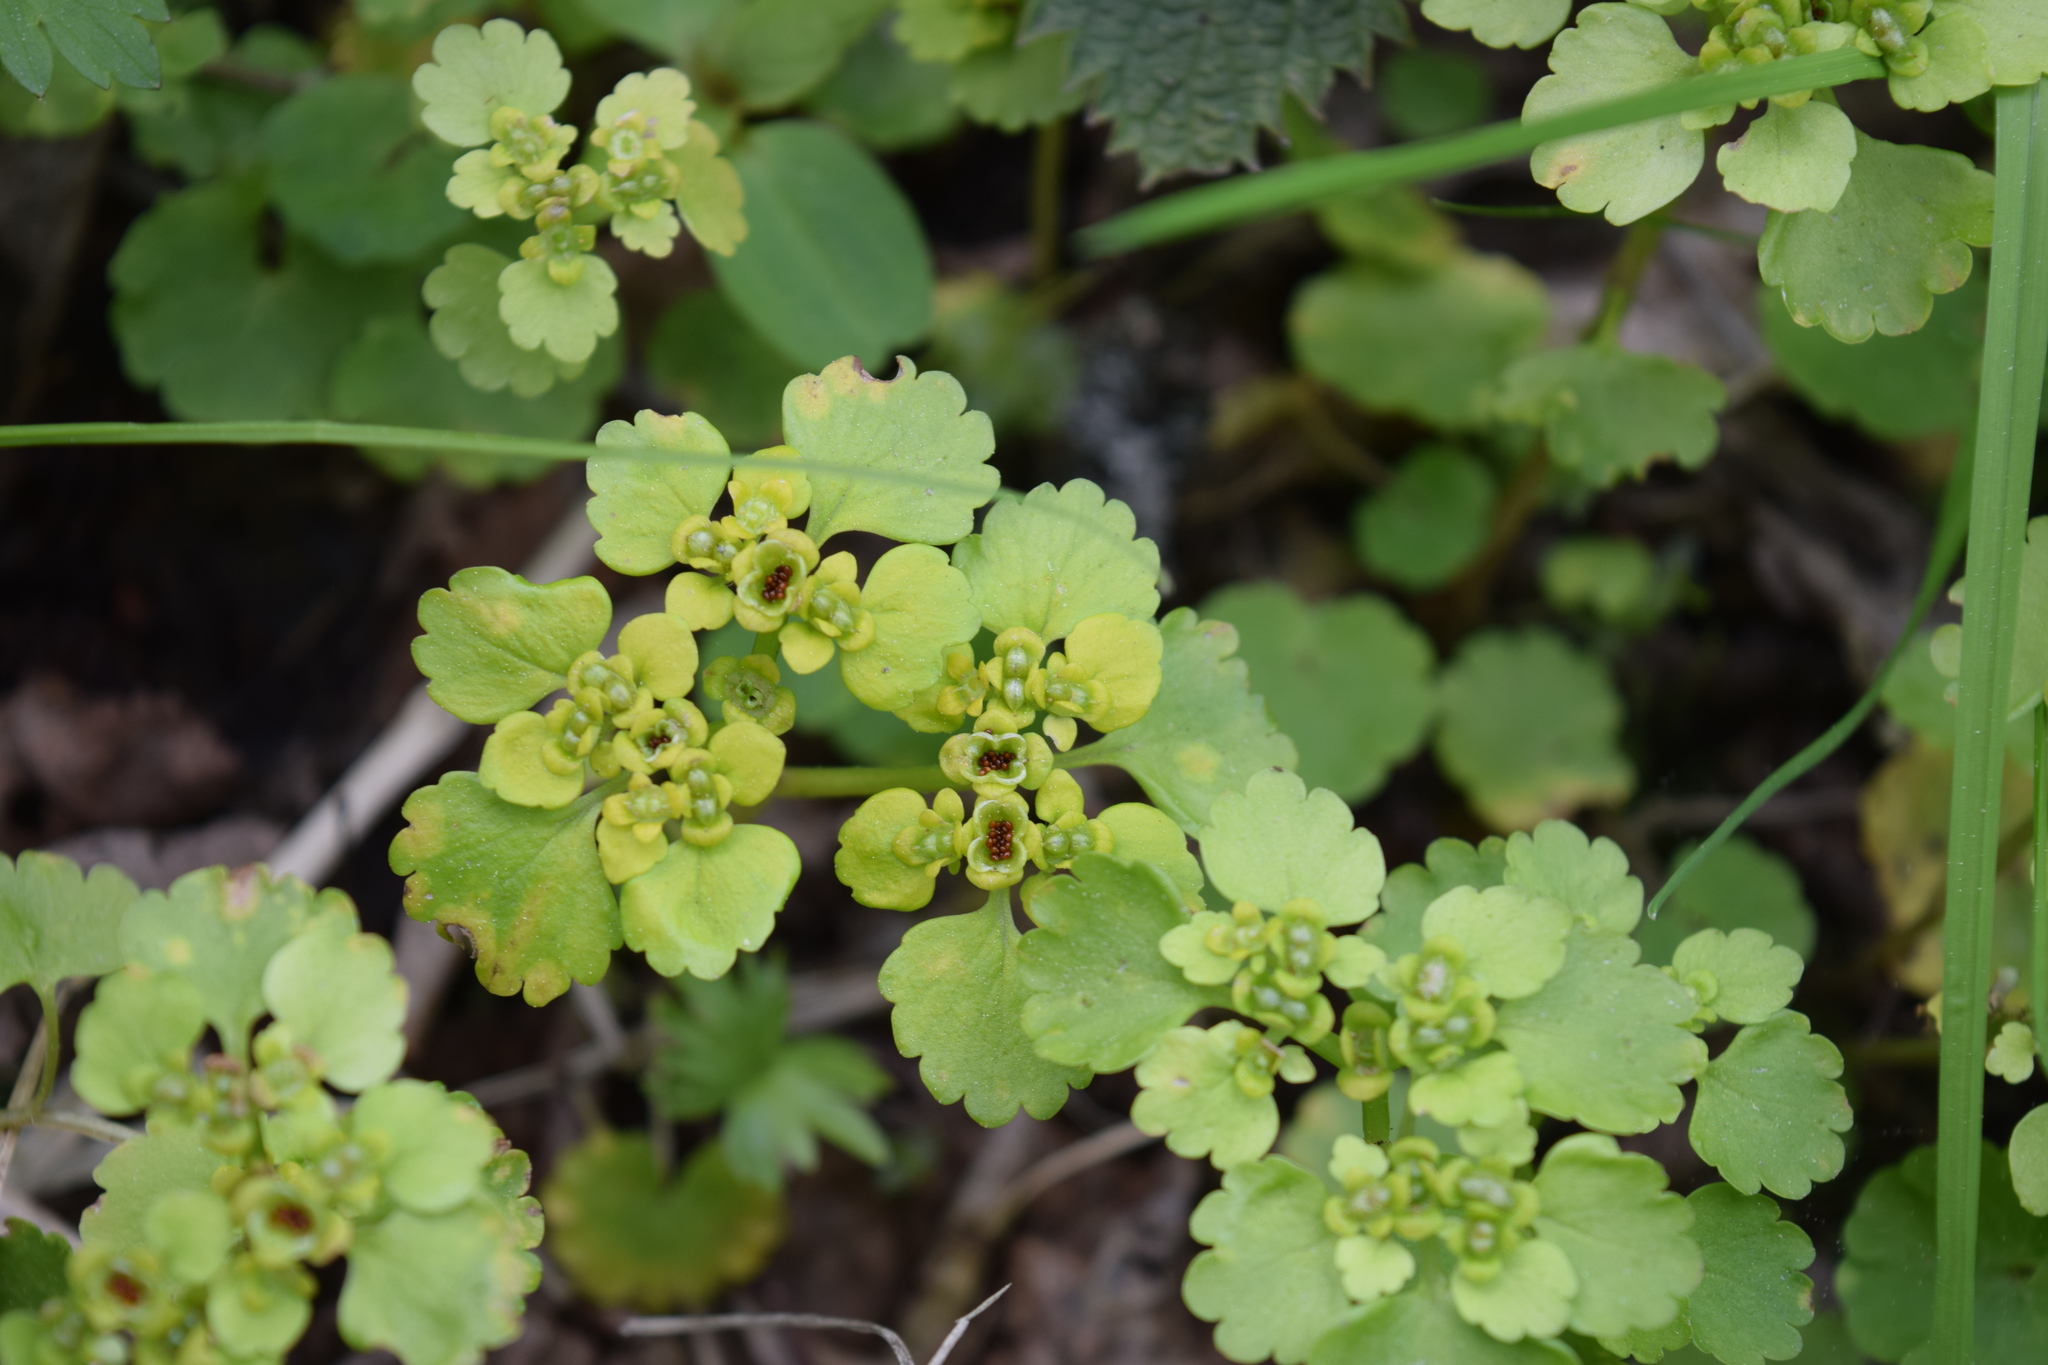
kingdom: Plantae
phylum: Tracheophyta
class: Magnoliopsida
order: Saxifragales
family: Saxifragaceae
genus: Chrysosplenium
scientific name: Chrysosplenium alternifolium
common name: Alternate-leaved golden-saxifrage
